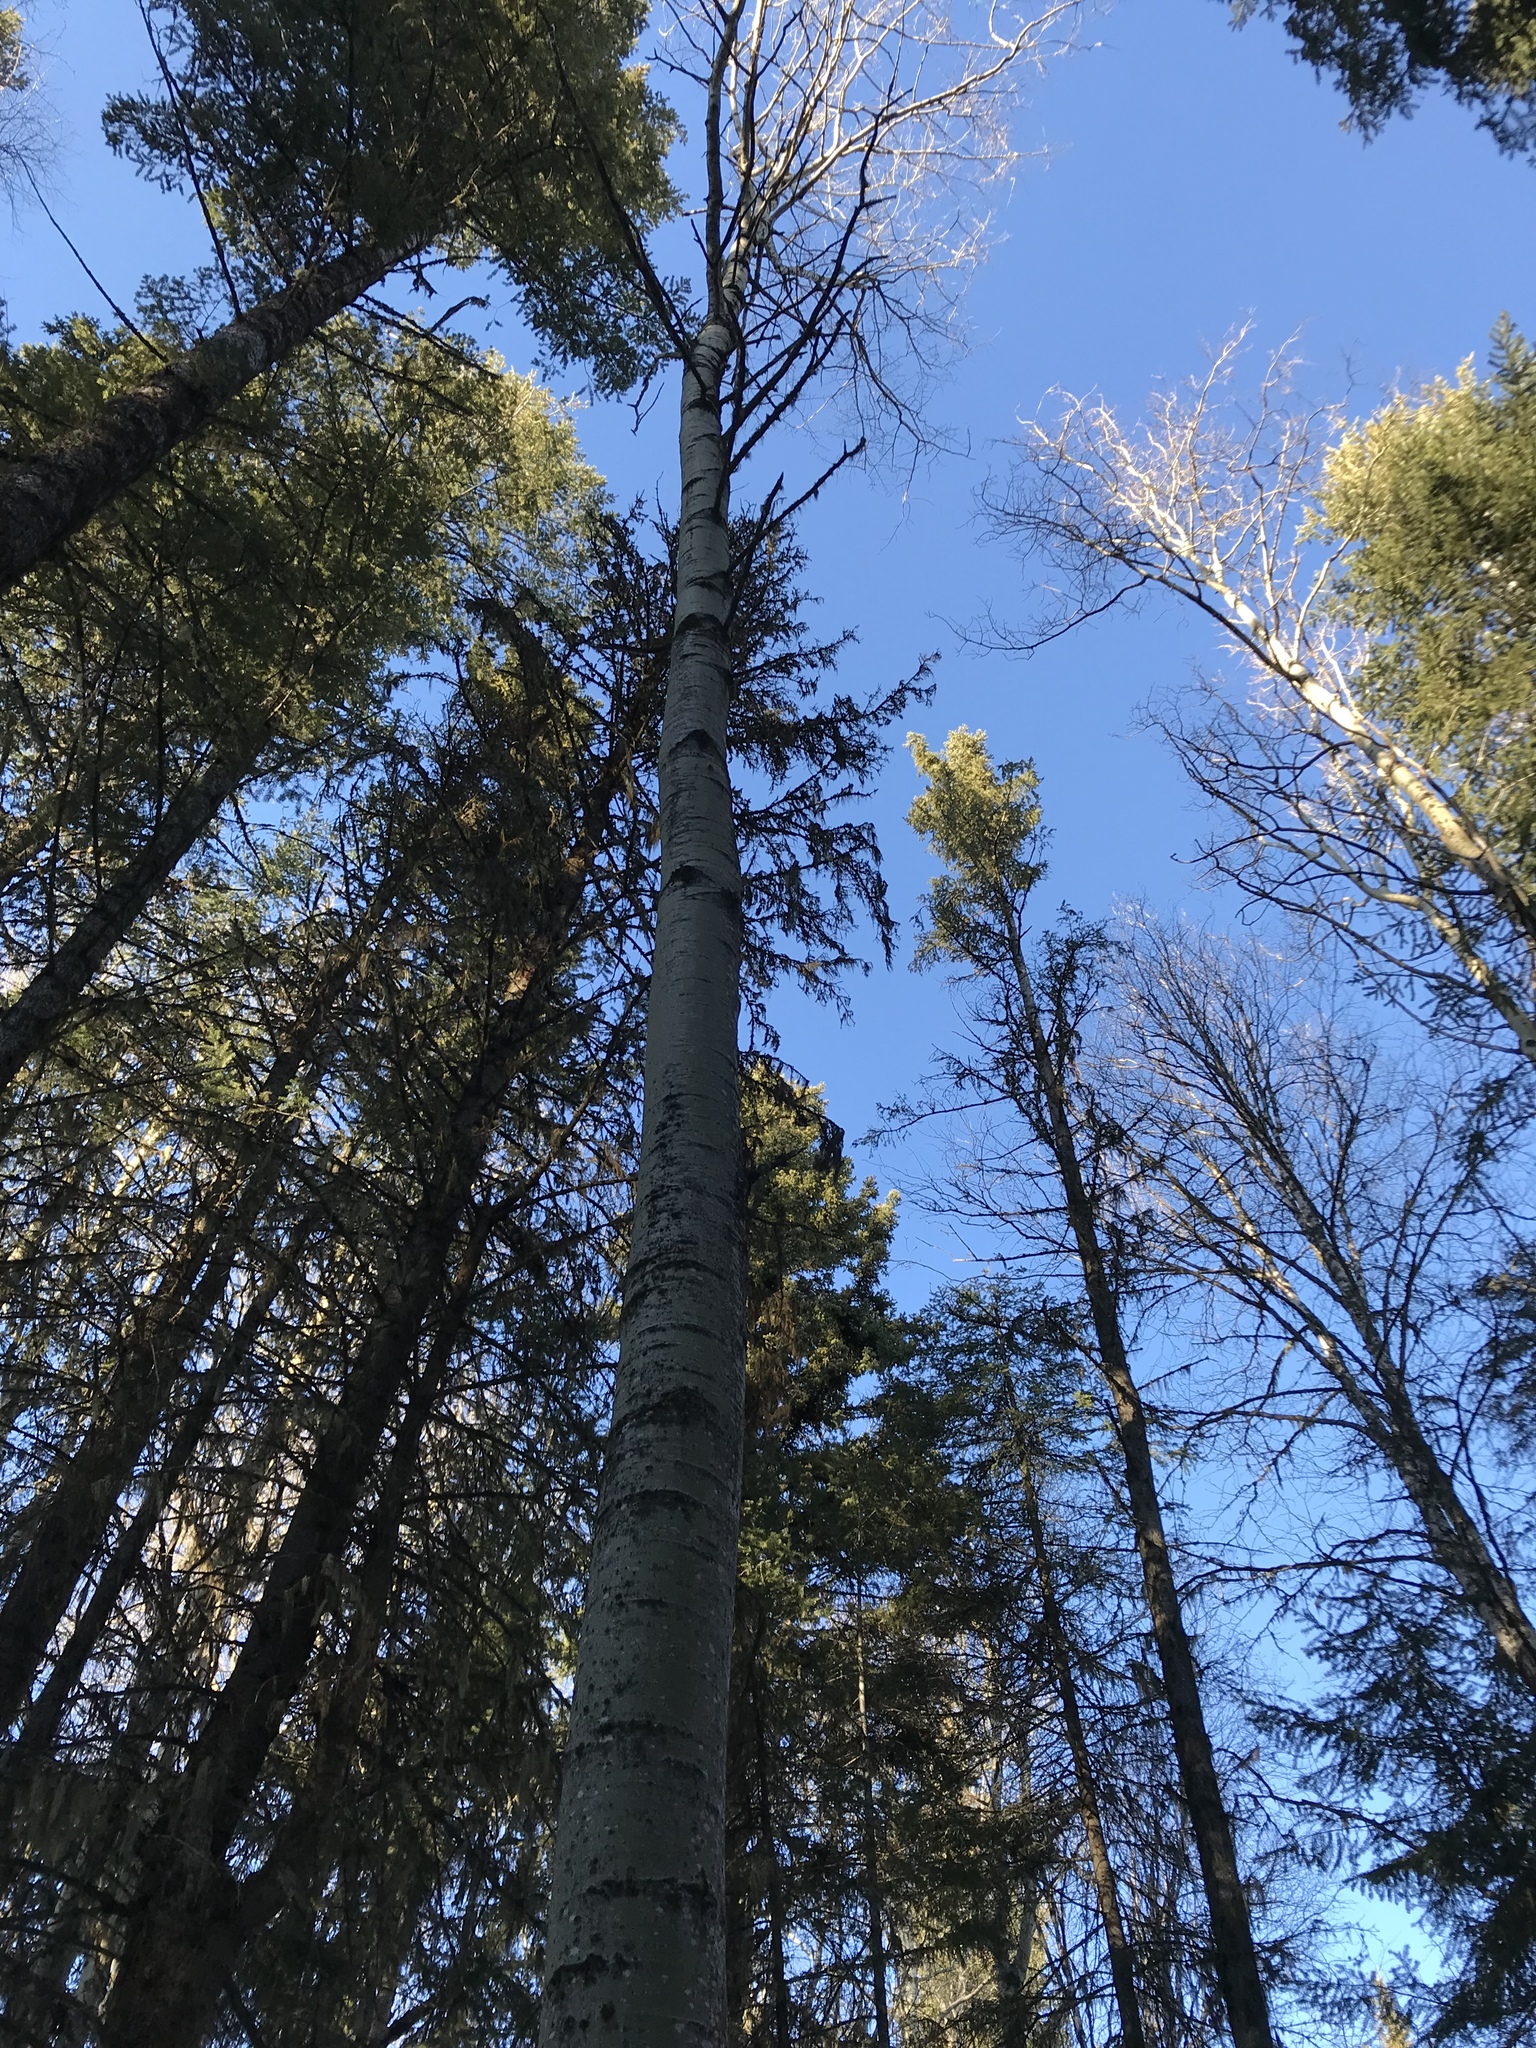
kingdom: Plantae
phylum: Tracheophyta
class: Magnoliopsida
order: Malpighiales
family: Salicaceae
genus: Populus
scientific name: Populus tremuloides
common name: Quaking aspen
